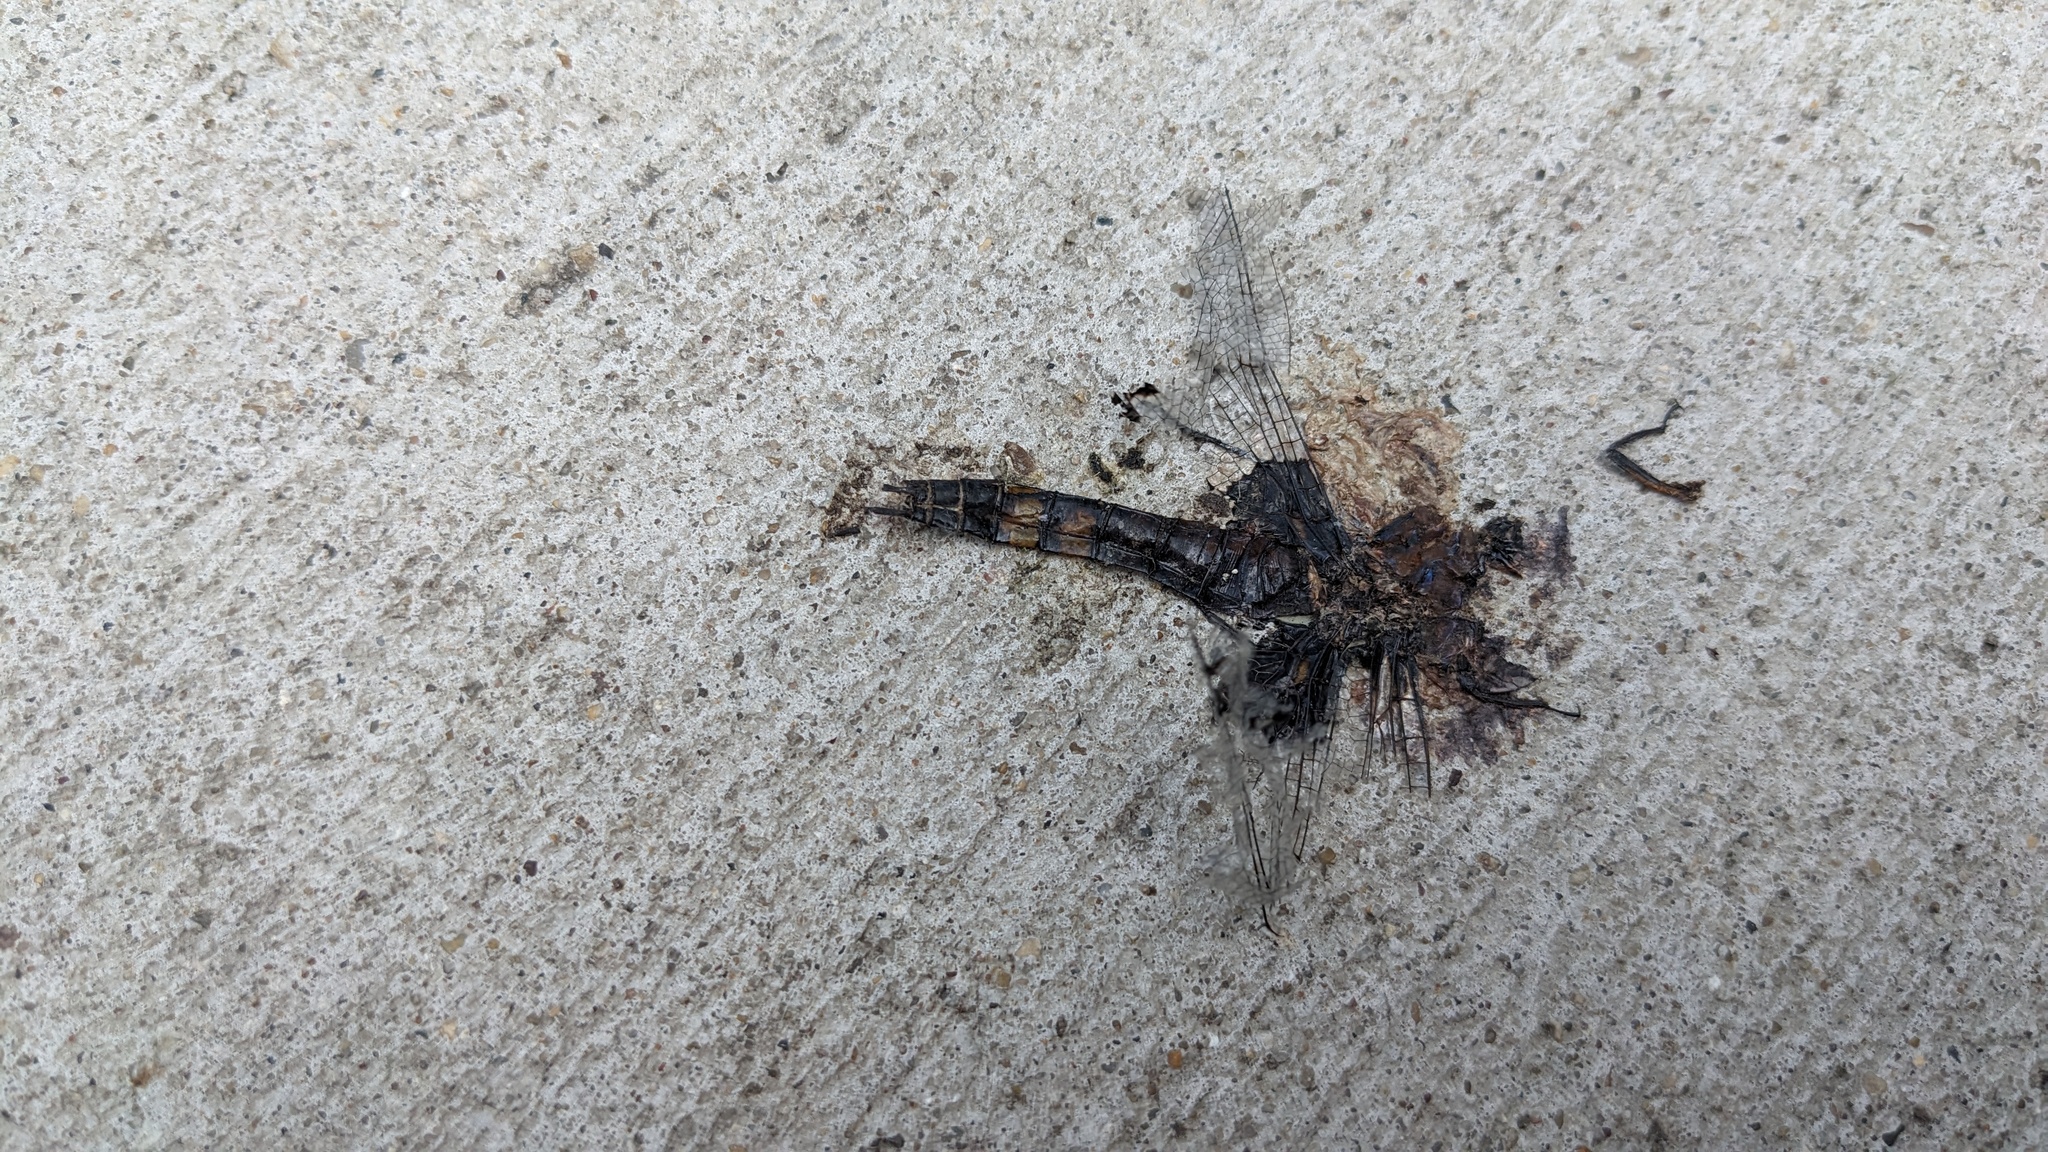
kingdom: Animalia
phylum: Arthropoda
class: Insecta
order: Odonata
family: Libellulidae
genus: Tramea
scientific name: Tramea lacerata
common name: Black saddlebags
